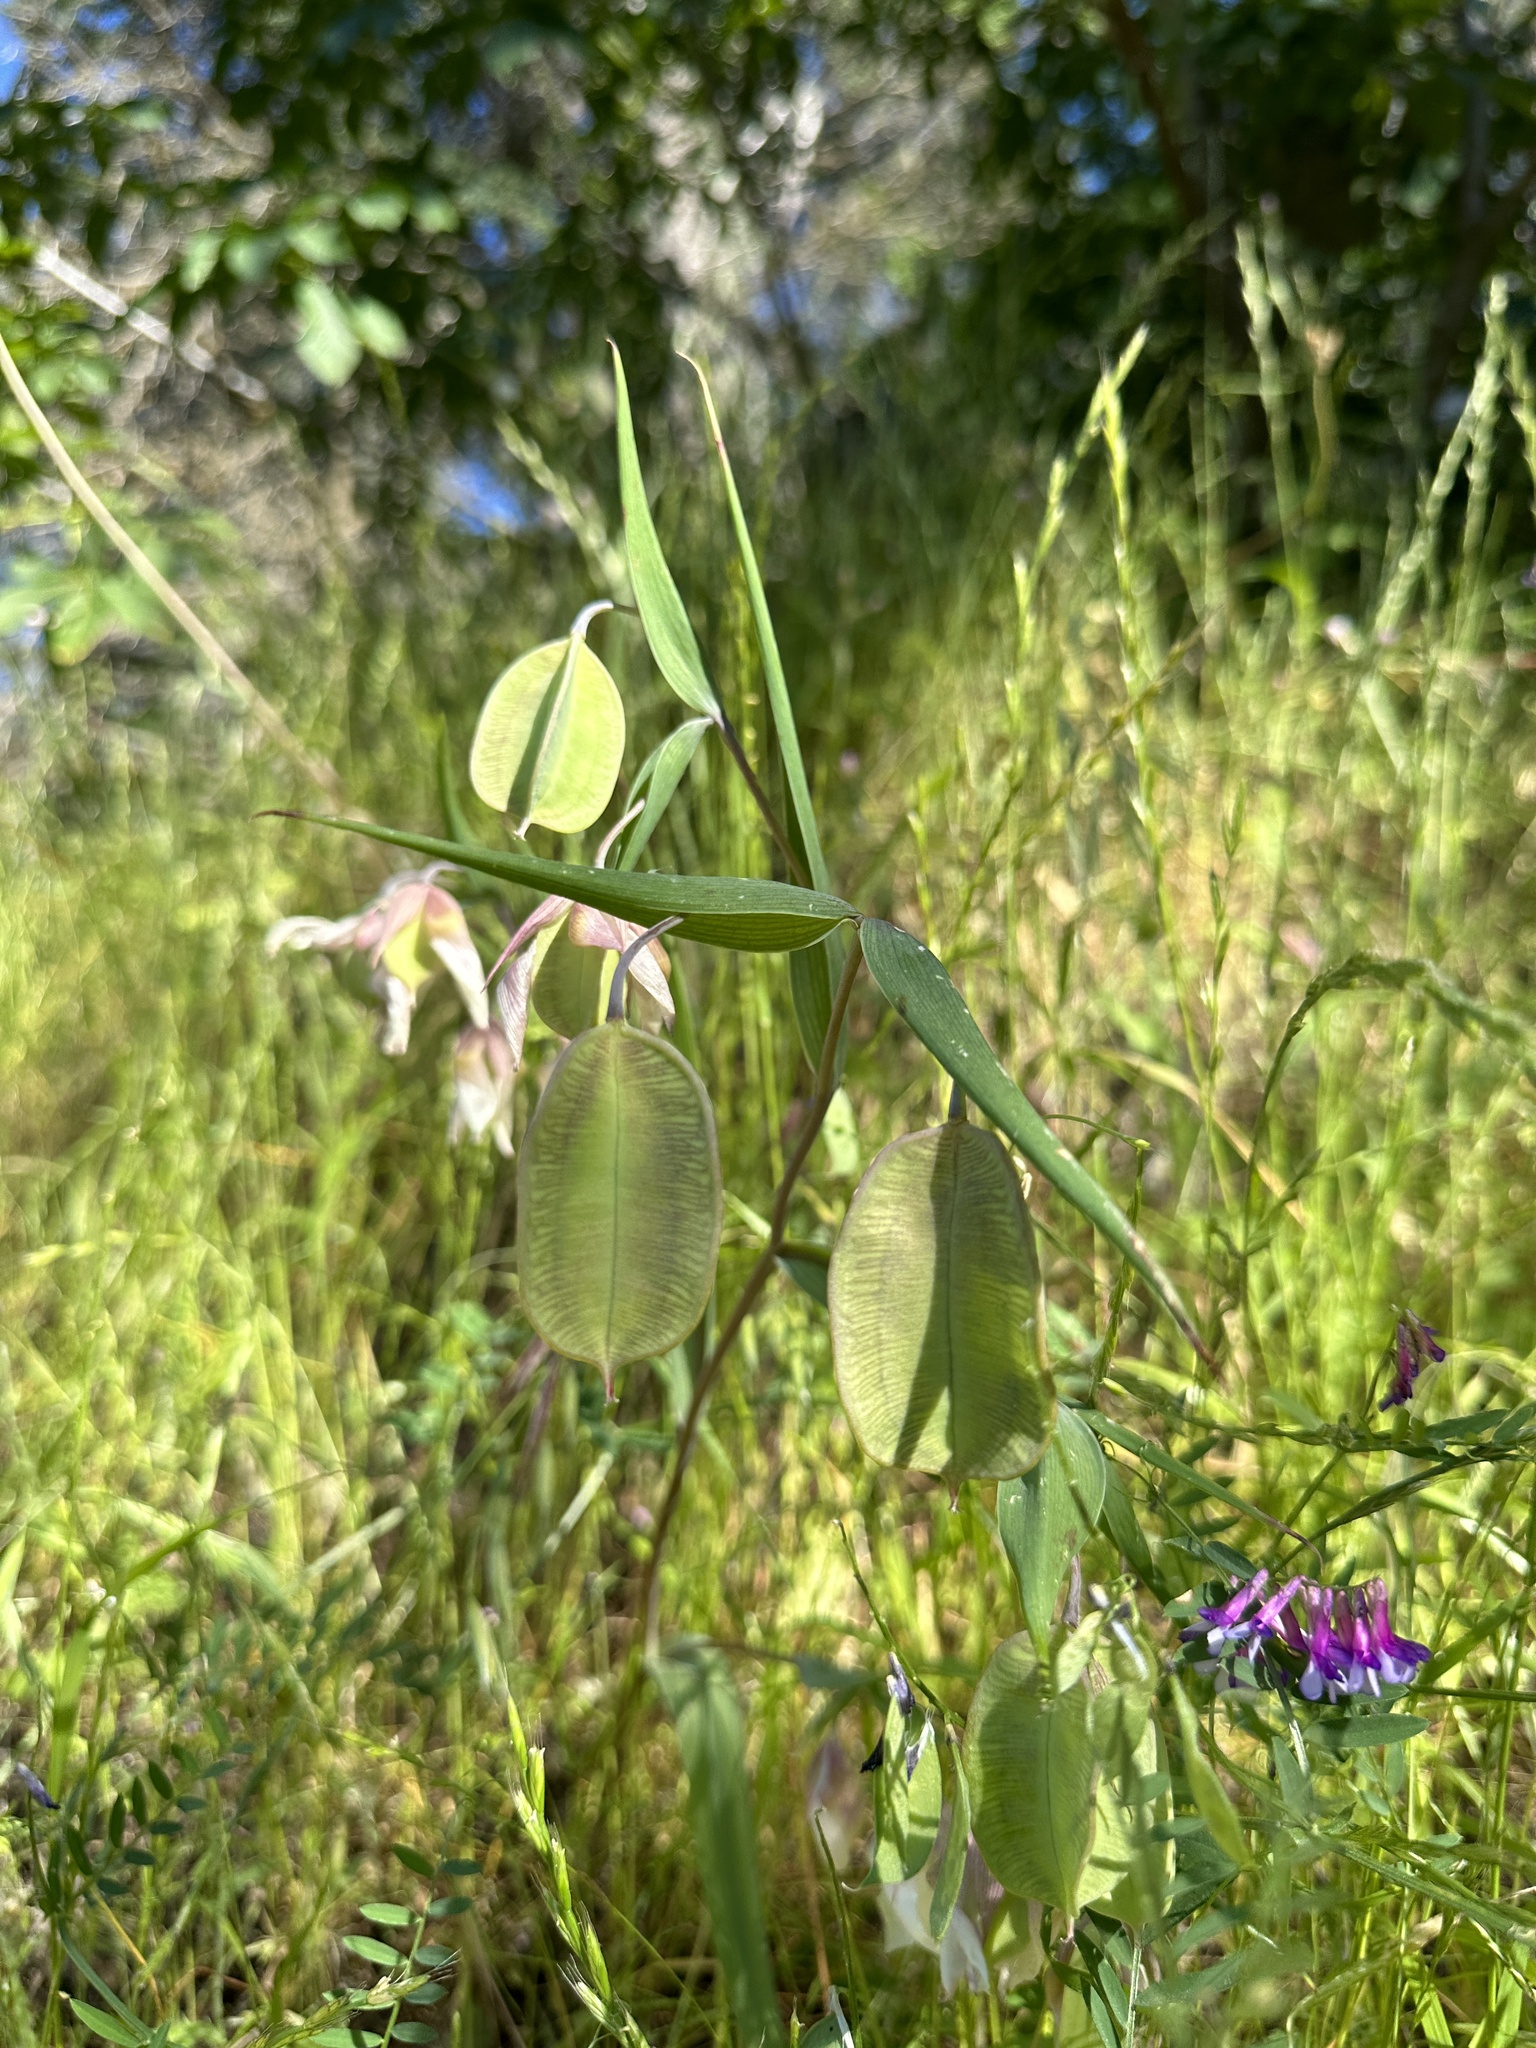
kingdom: Plantae
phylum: Tracheophyta
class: Liliopsida
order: Liliales
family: Liliaceae
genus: Calochortus
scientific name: Calochortus albus
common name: Fairy-lantern
